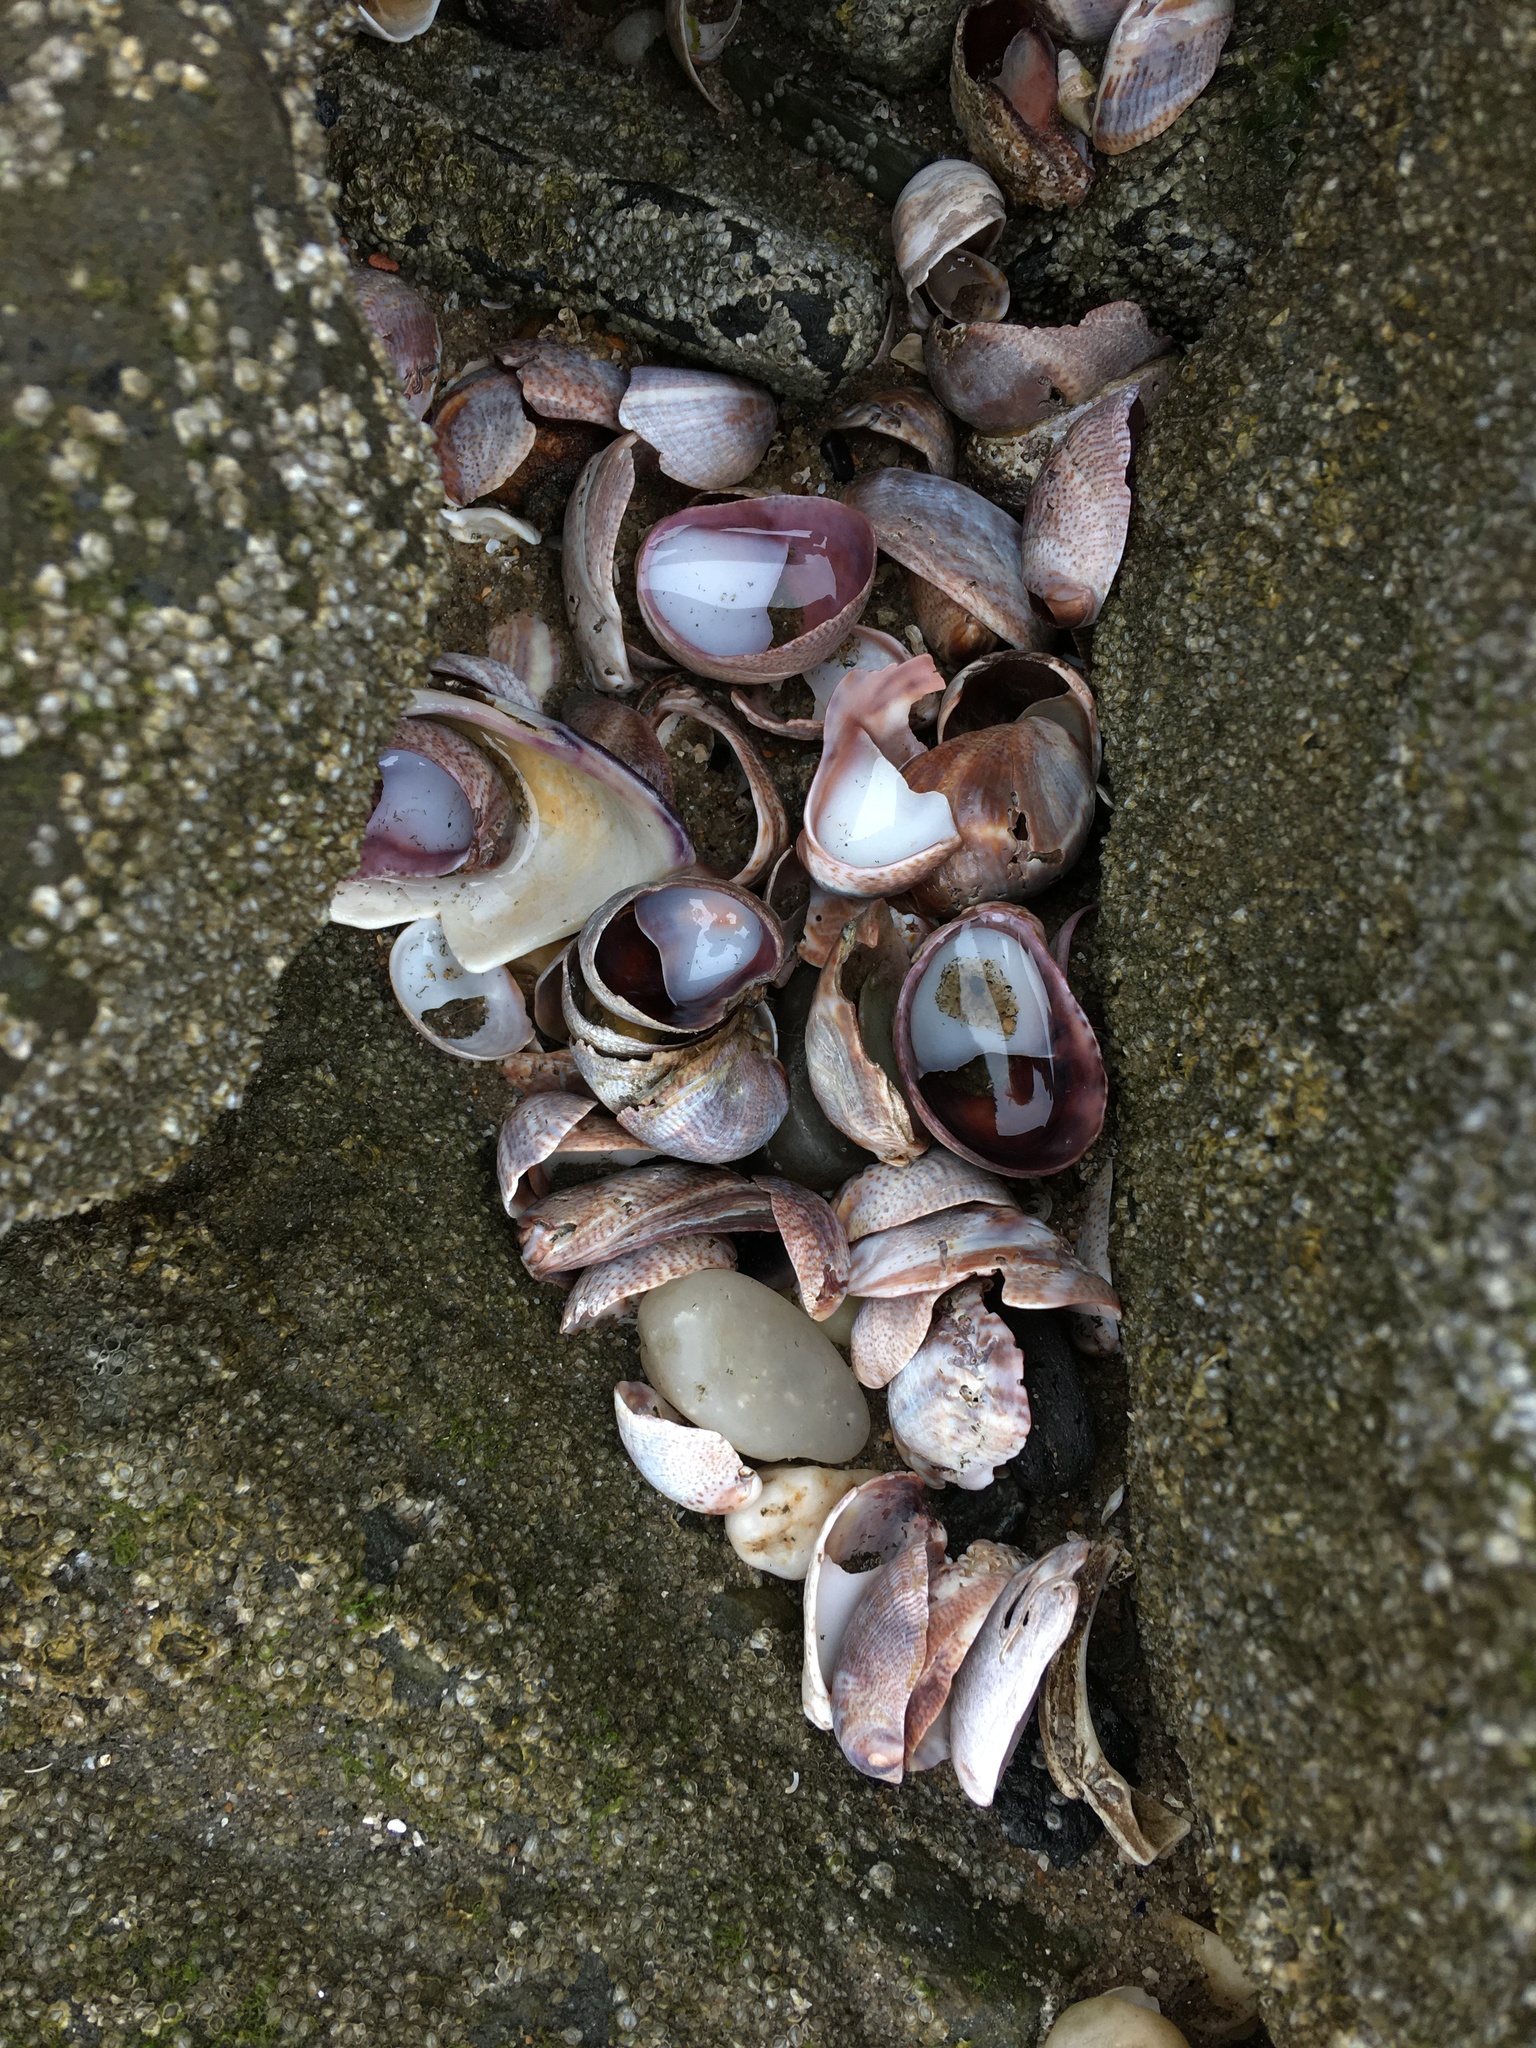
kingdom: Animalia
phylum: Mollusca
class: Gastropoda
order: Littorinimorpha
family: Calyptraeidae
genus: Crepidula
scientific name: Crepidula fornicata
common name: Slipper limpet
